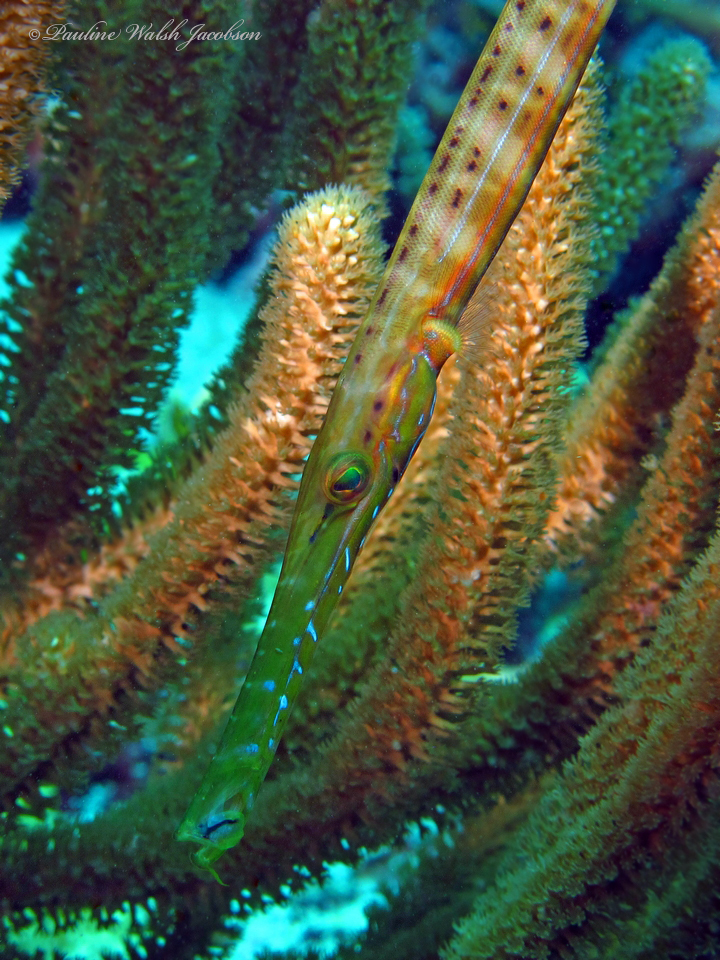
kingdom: Animalia
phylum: Chordata
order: Syngnathiformes
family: Aulostomidae
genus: Aulostomus
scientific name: Aulostomus maculatus
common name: West atlantic trumpetfish
